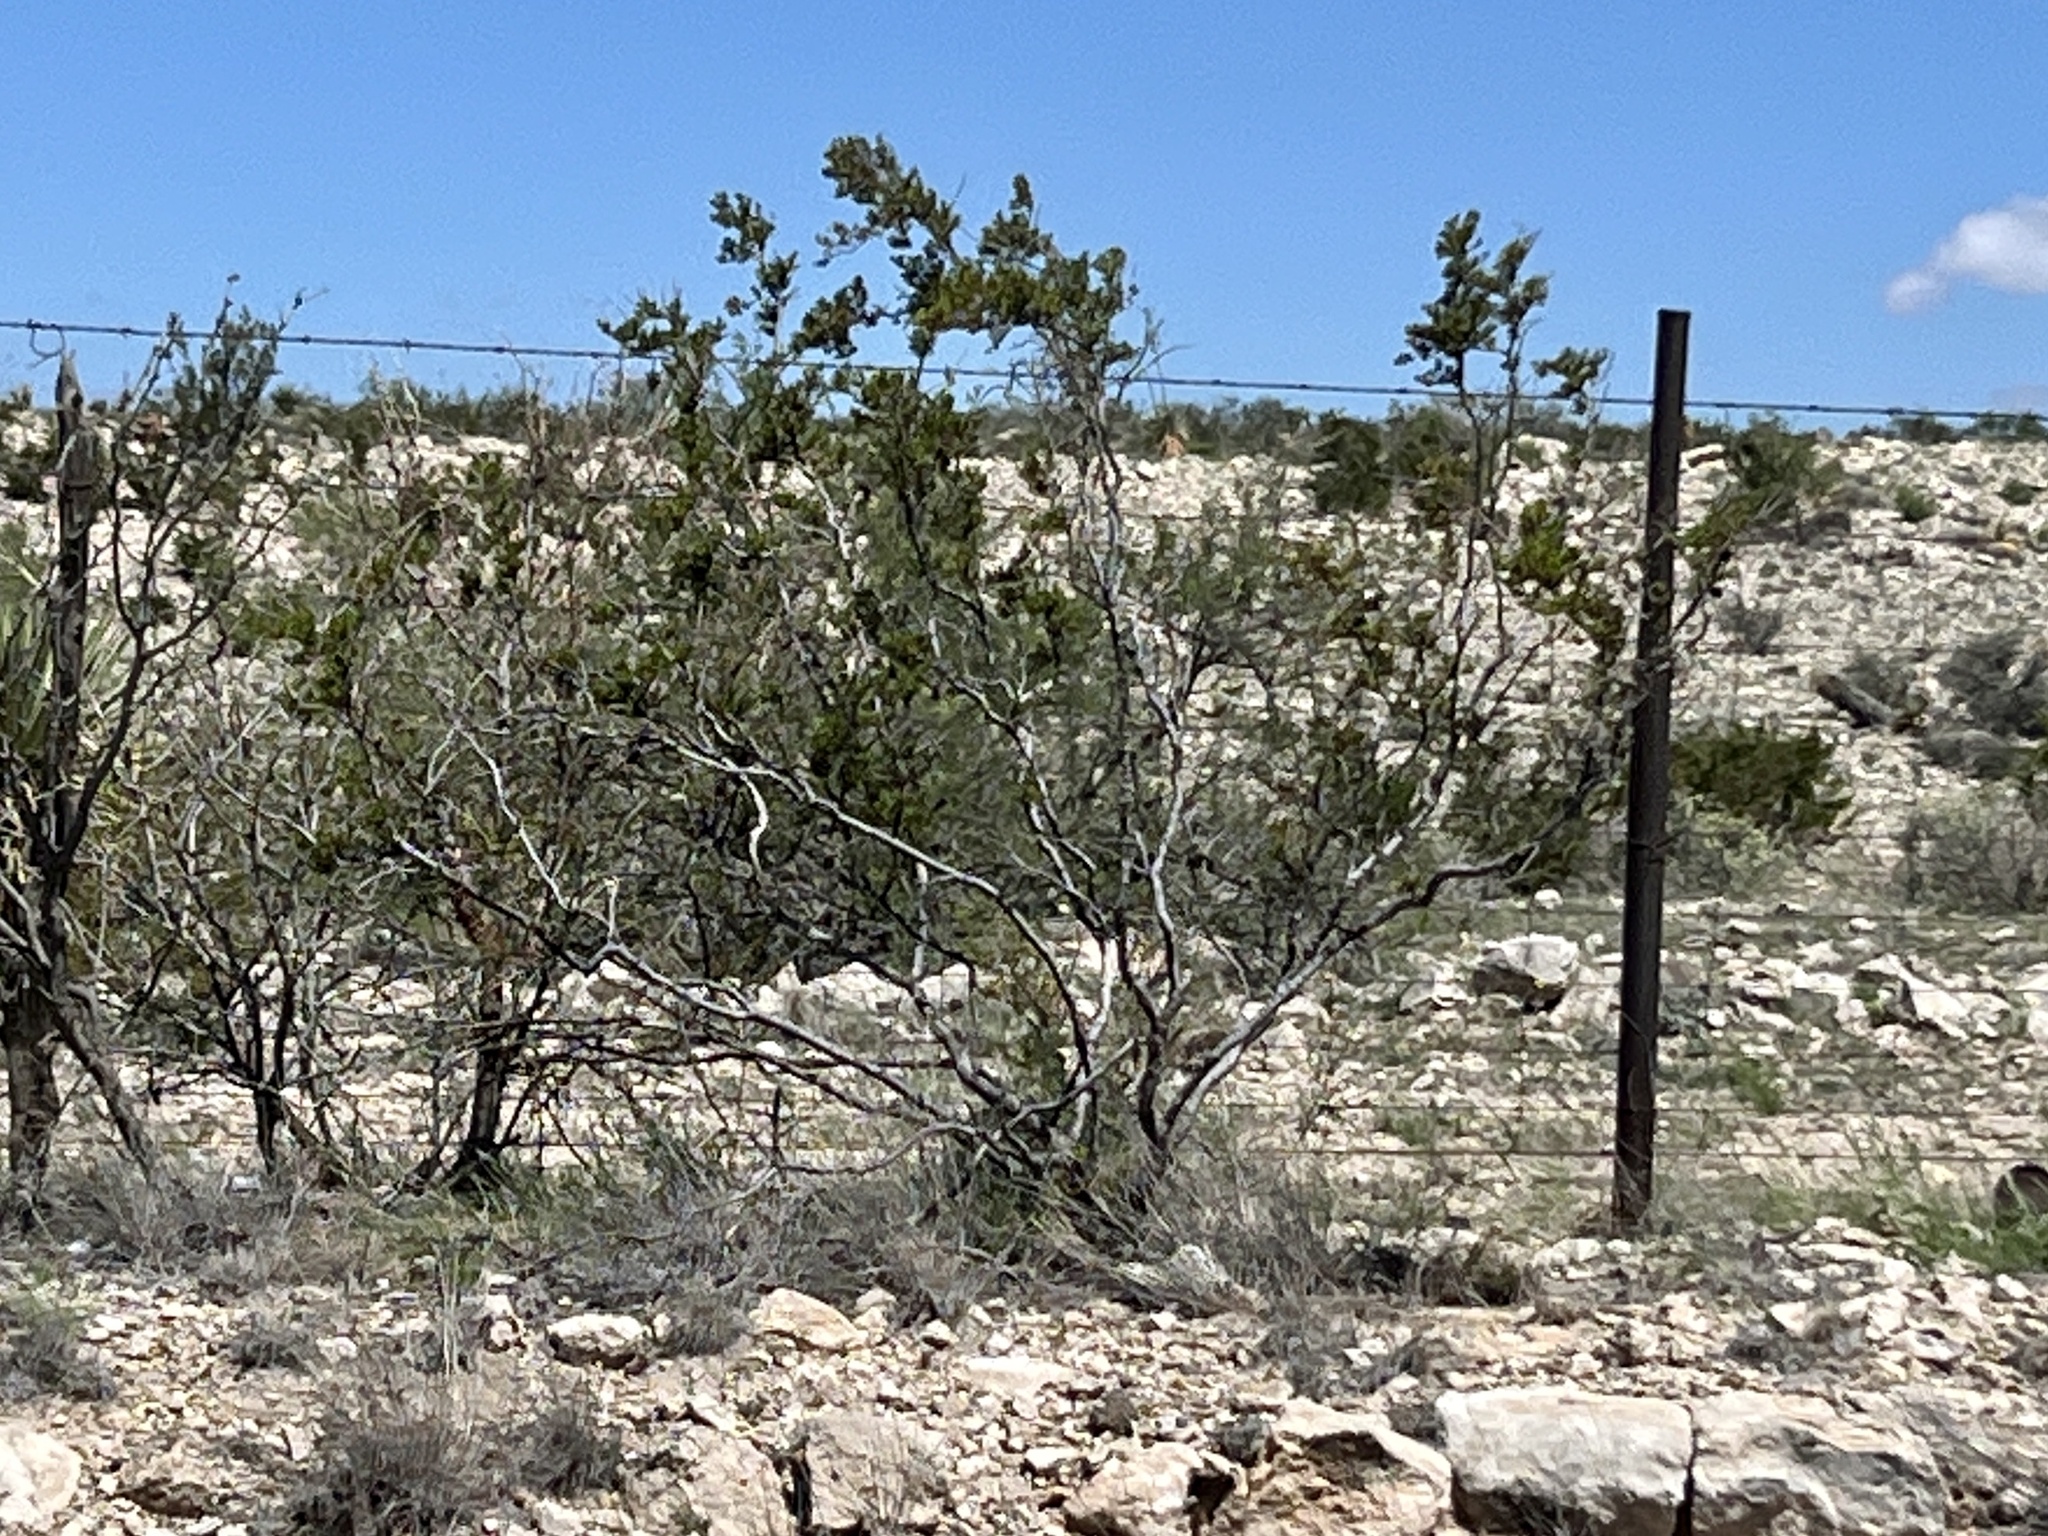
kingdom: Plantae
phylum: Tracheophyta
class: Magnoliopsida
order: Zygophyllales
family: Zygophyllaceae
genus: Larrea
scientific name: Larrea tridentata
